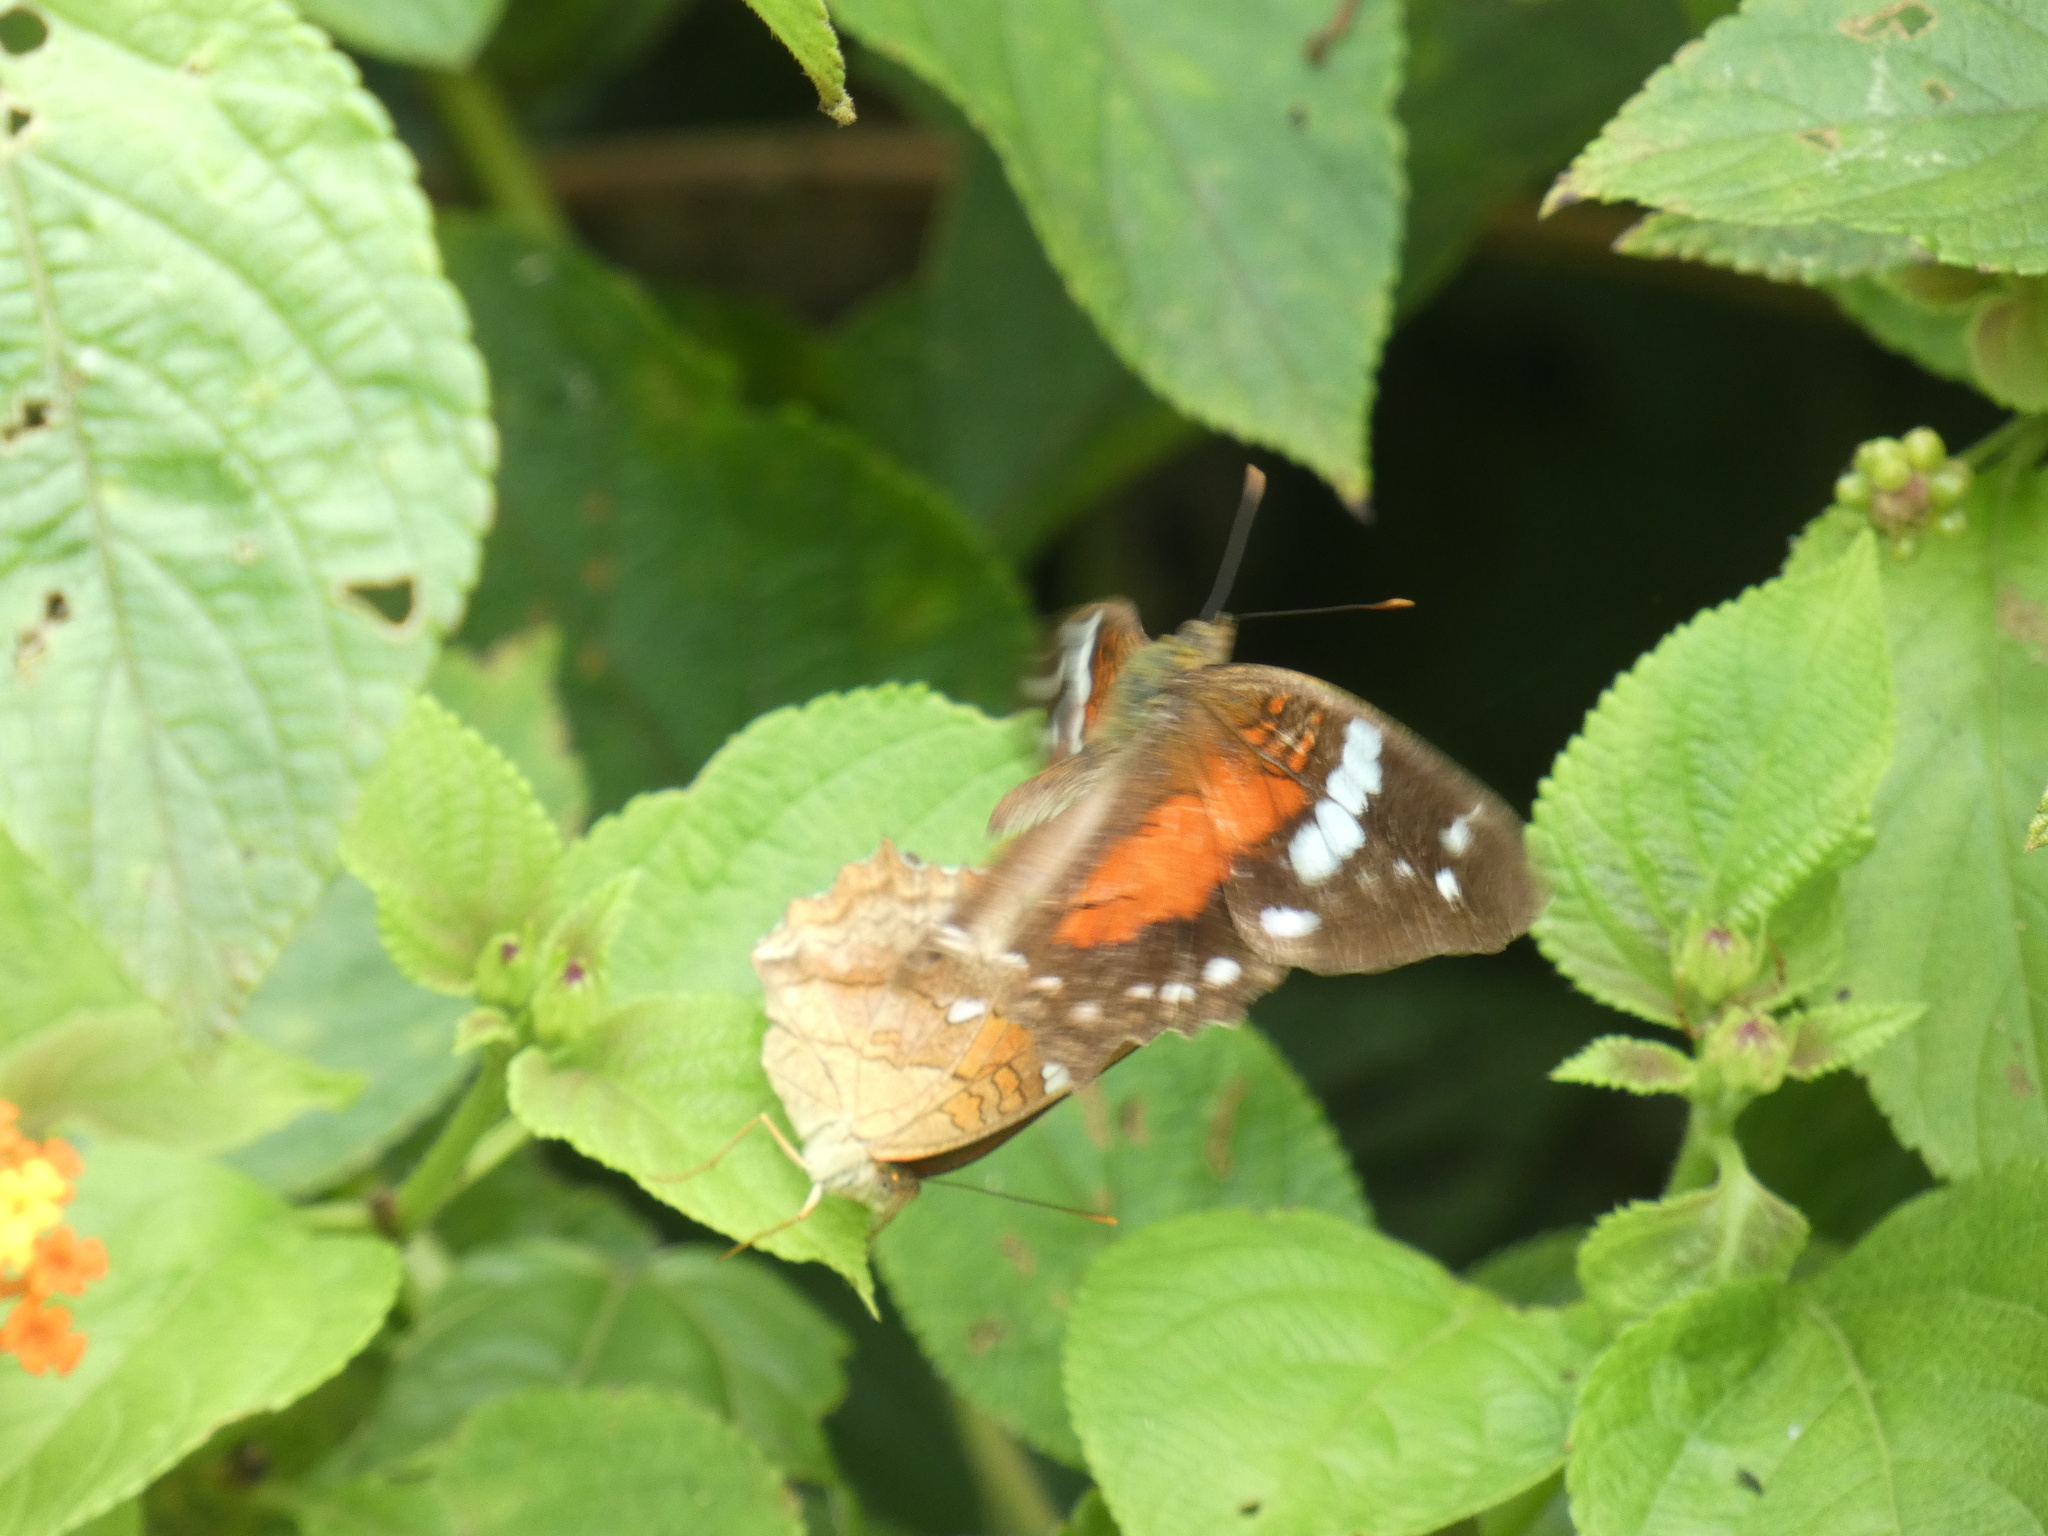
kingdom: Animalia
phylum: Arthropoda
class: Insecta
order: Lepidoptera
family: Nymphalidae
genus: Anartia
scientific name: Anartia amathea
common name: Red peacock
